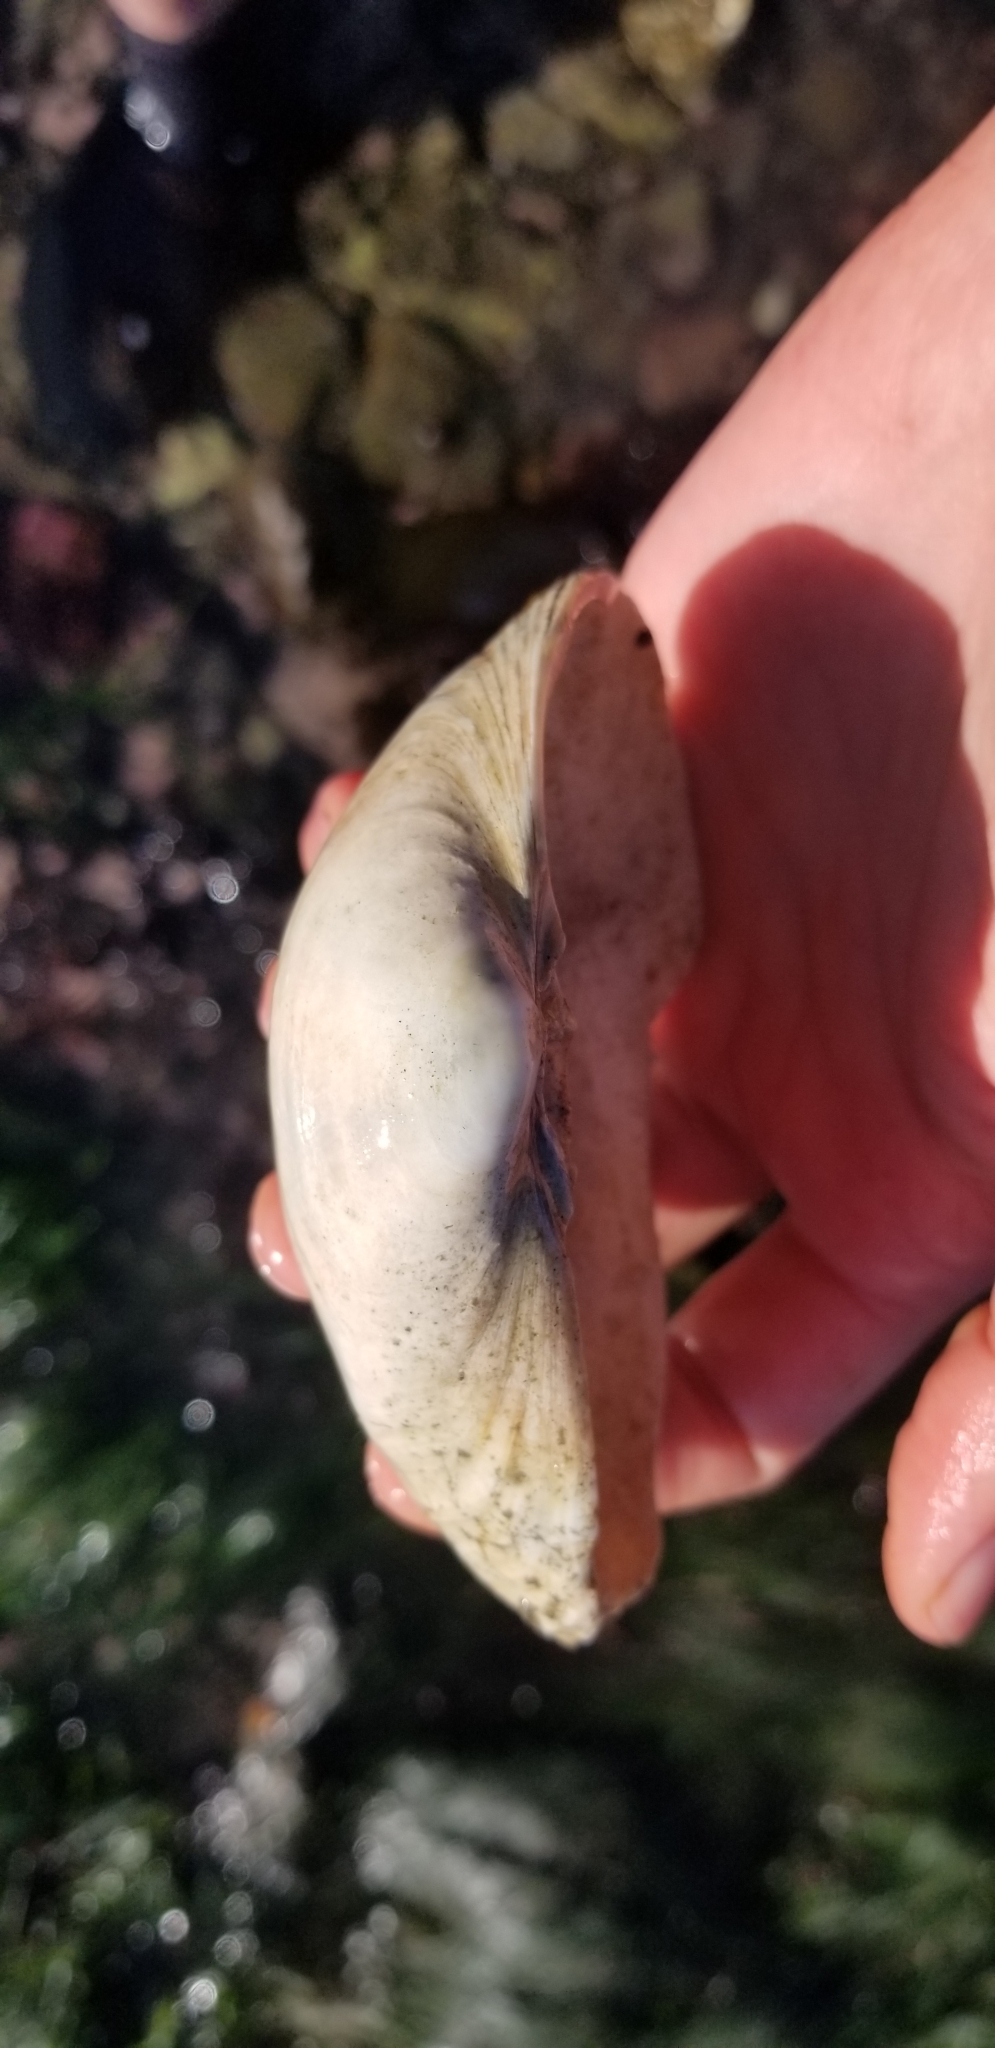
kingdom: Animalia
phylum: Mollusca
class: Bivalvia
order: Venerida
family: Mactridae
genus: Tresus
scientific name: Tresus nuttallii
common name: Pacific gaper clam
